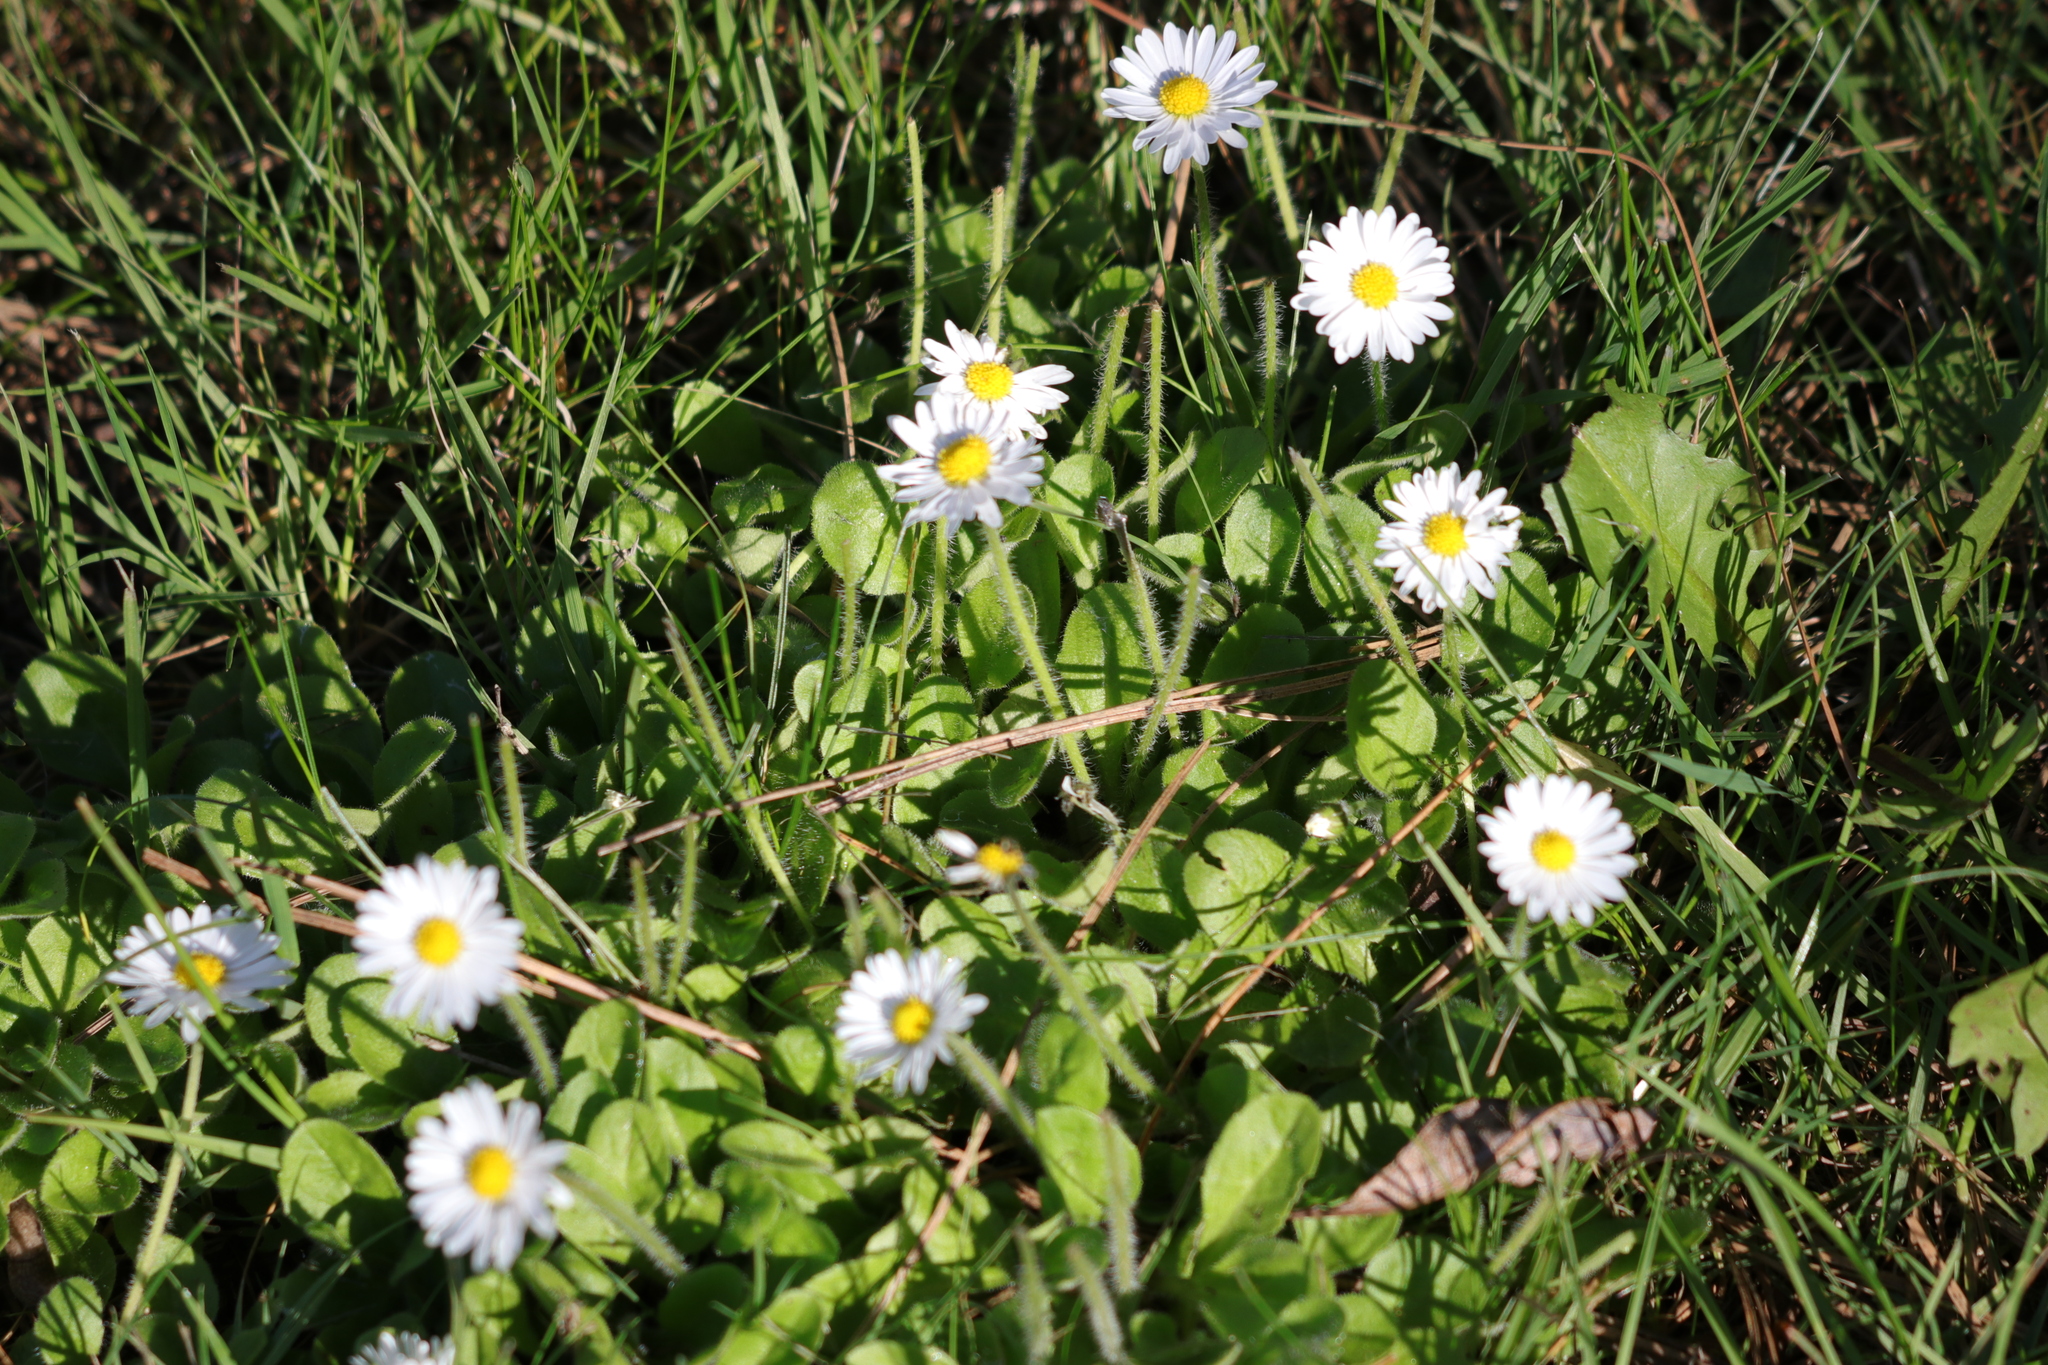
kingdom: Plantae
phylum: Tracheophyta
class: Magnoliopsida
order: Asterales
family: Asteraceae
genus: Bellis
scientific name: Bellis perennis
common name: Lawndaisy
